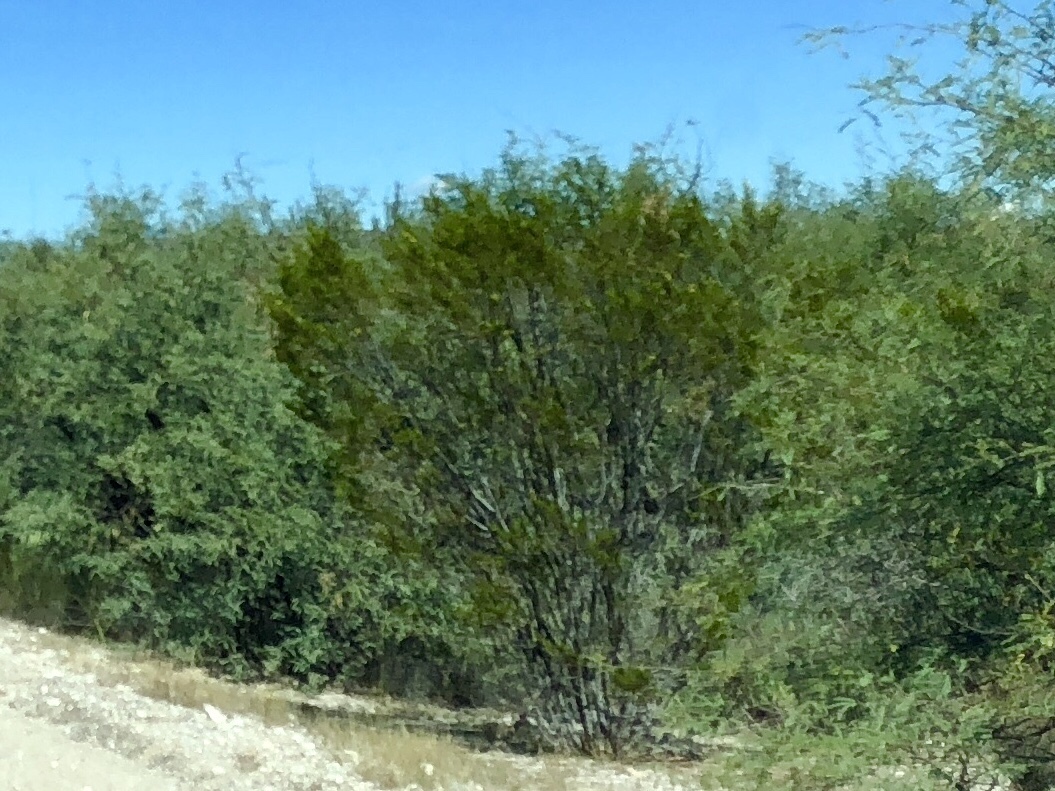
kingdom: Plantae
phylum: Tracheophyta
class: Magnoliopsida
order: Zygophyllales
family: Zygophyllaceae
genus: Larrea
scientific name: Larrea tridentata
